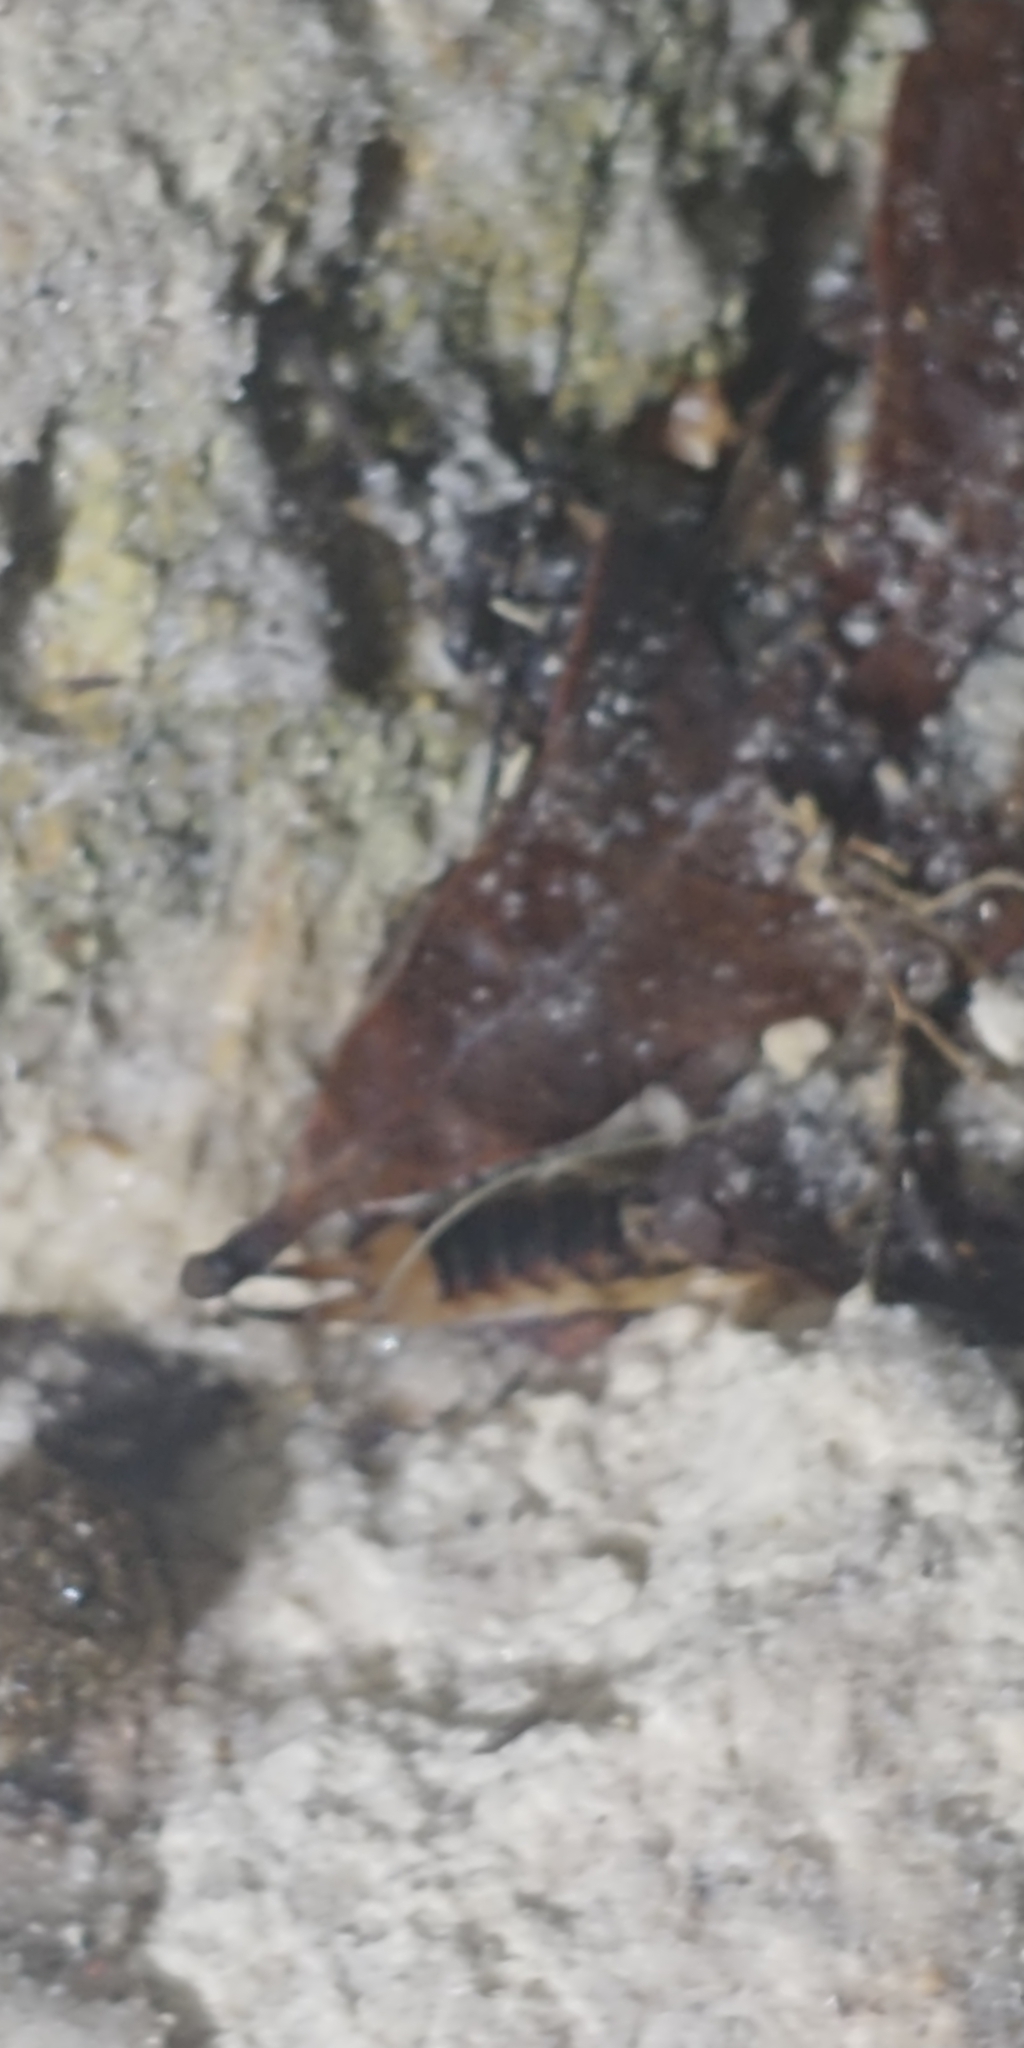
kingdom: Animalia
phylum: Arthropoda
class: Insecta
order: Dermaptera
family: Labiduridae
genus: Labidura
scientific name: Labidura riparia
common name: Striped earwig
